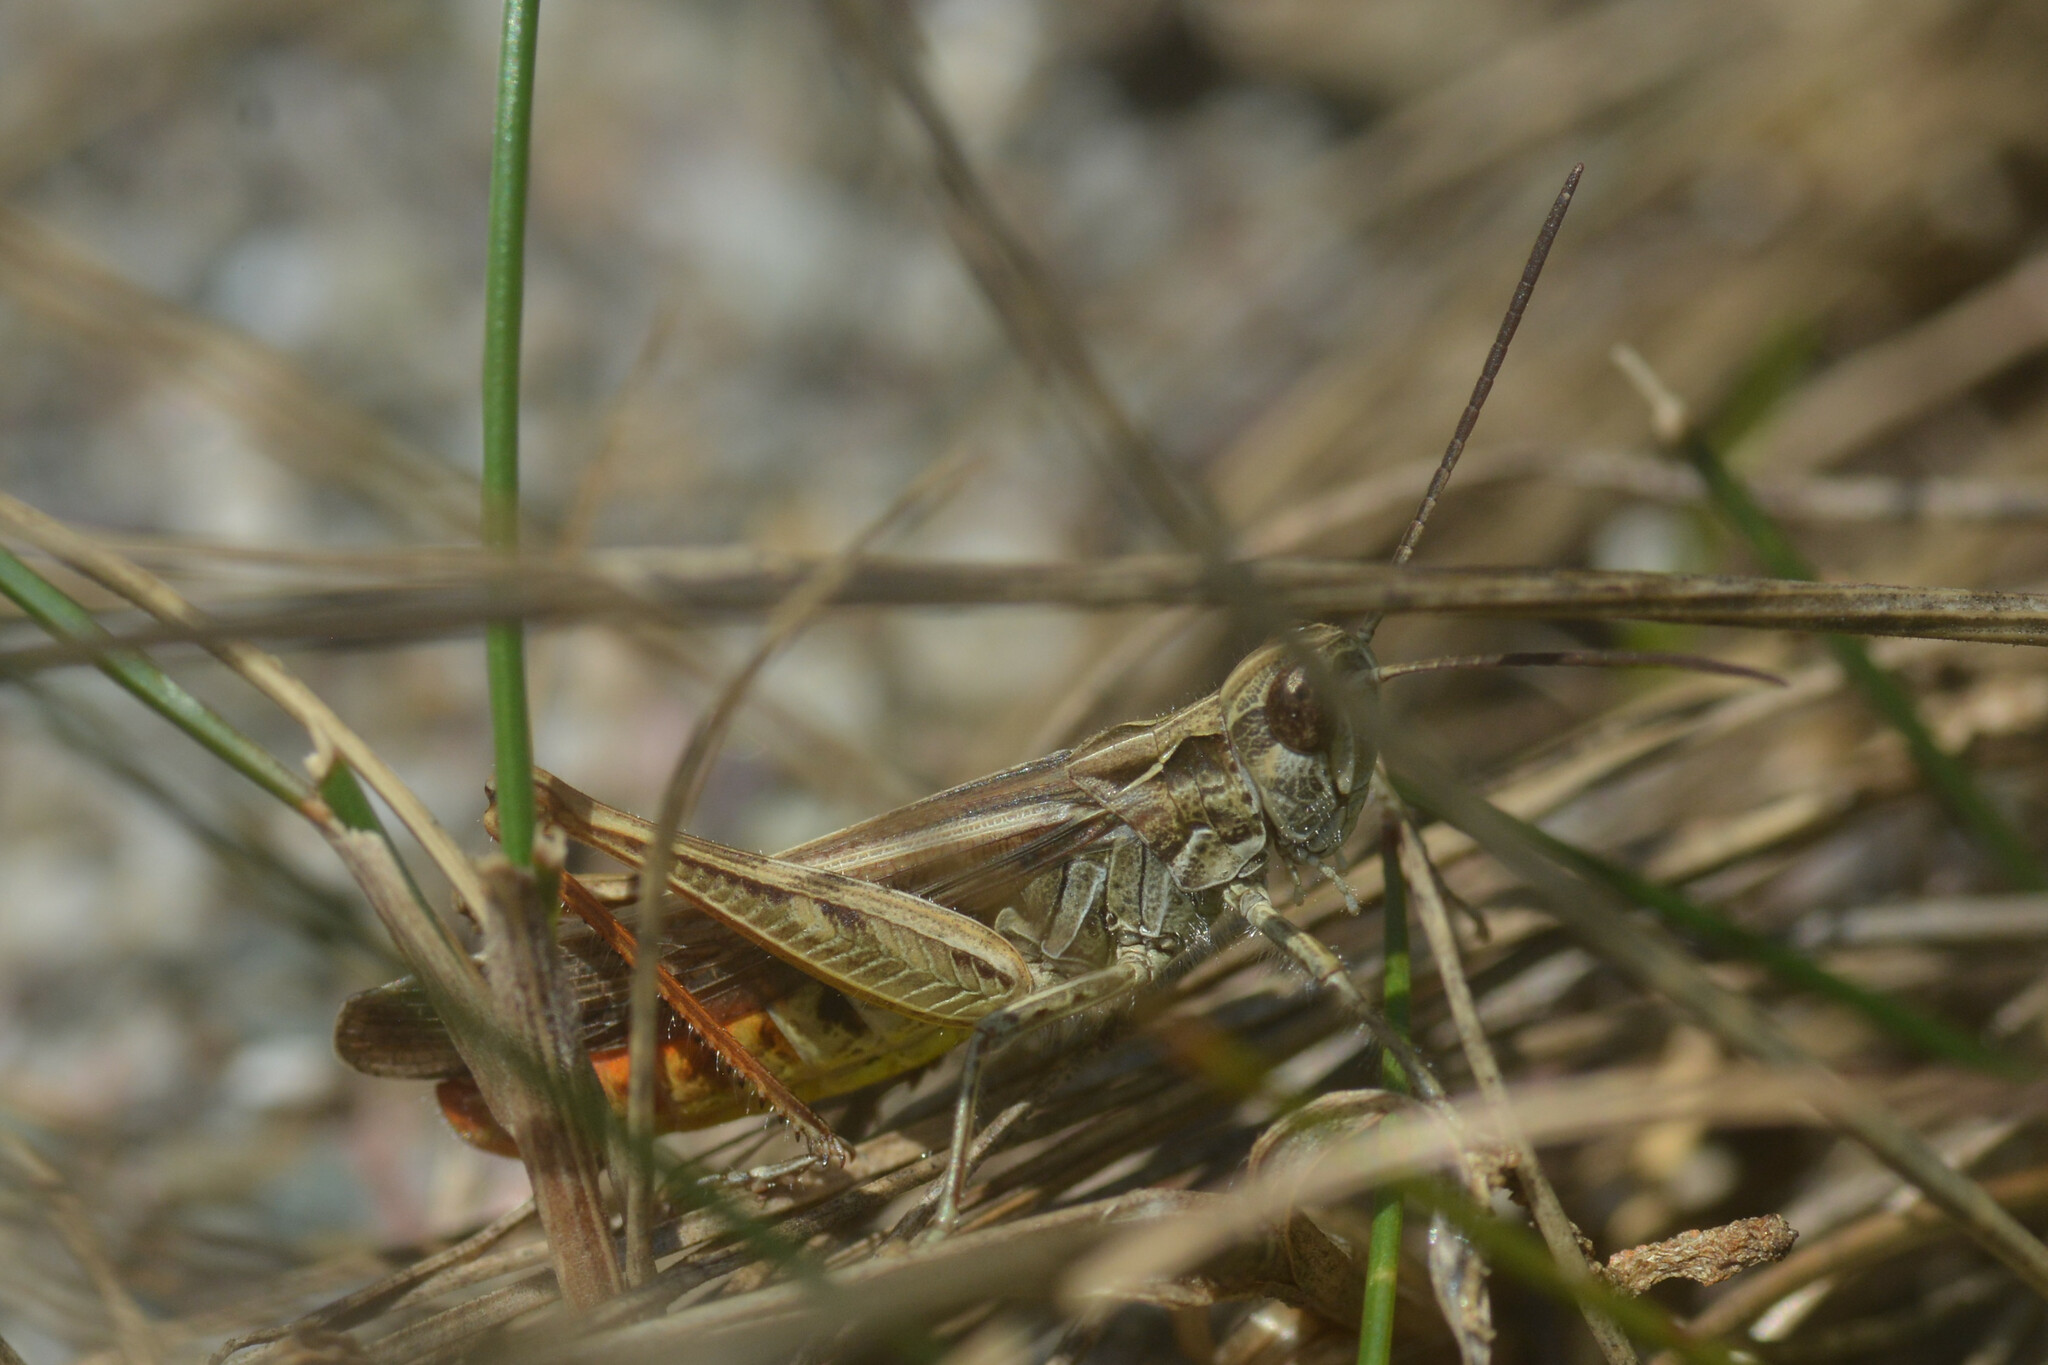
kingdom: Animalia
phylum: Arthropoda
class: Insecta
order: Orthoptera
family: Acrididae
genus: Chorthippus
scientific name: Chorthippus brunneus
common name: Field grasshopper
